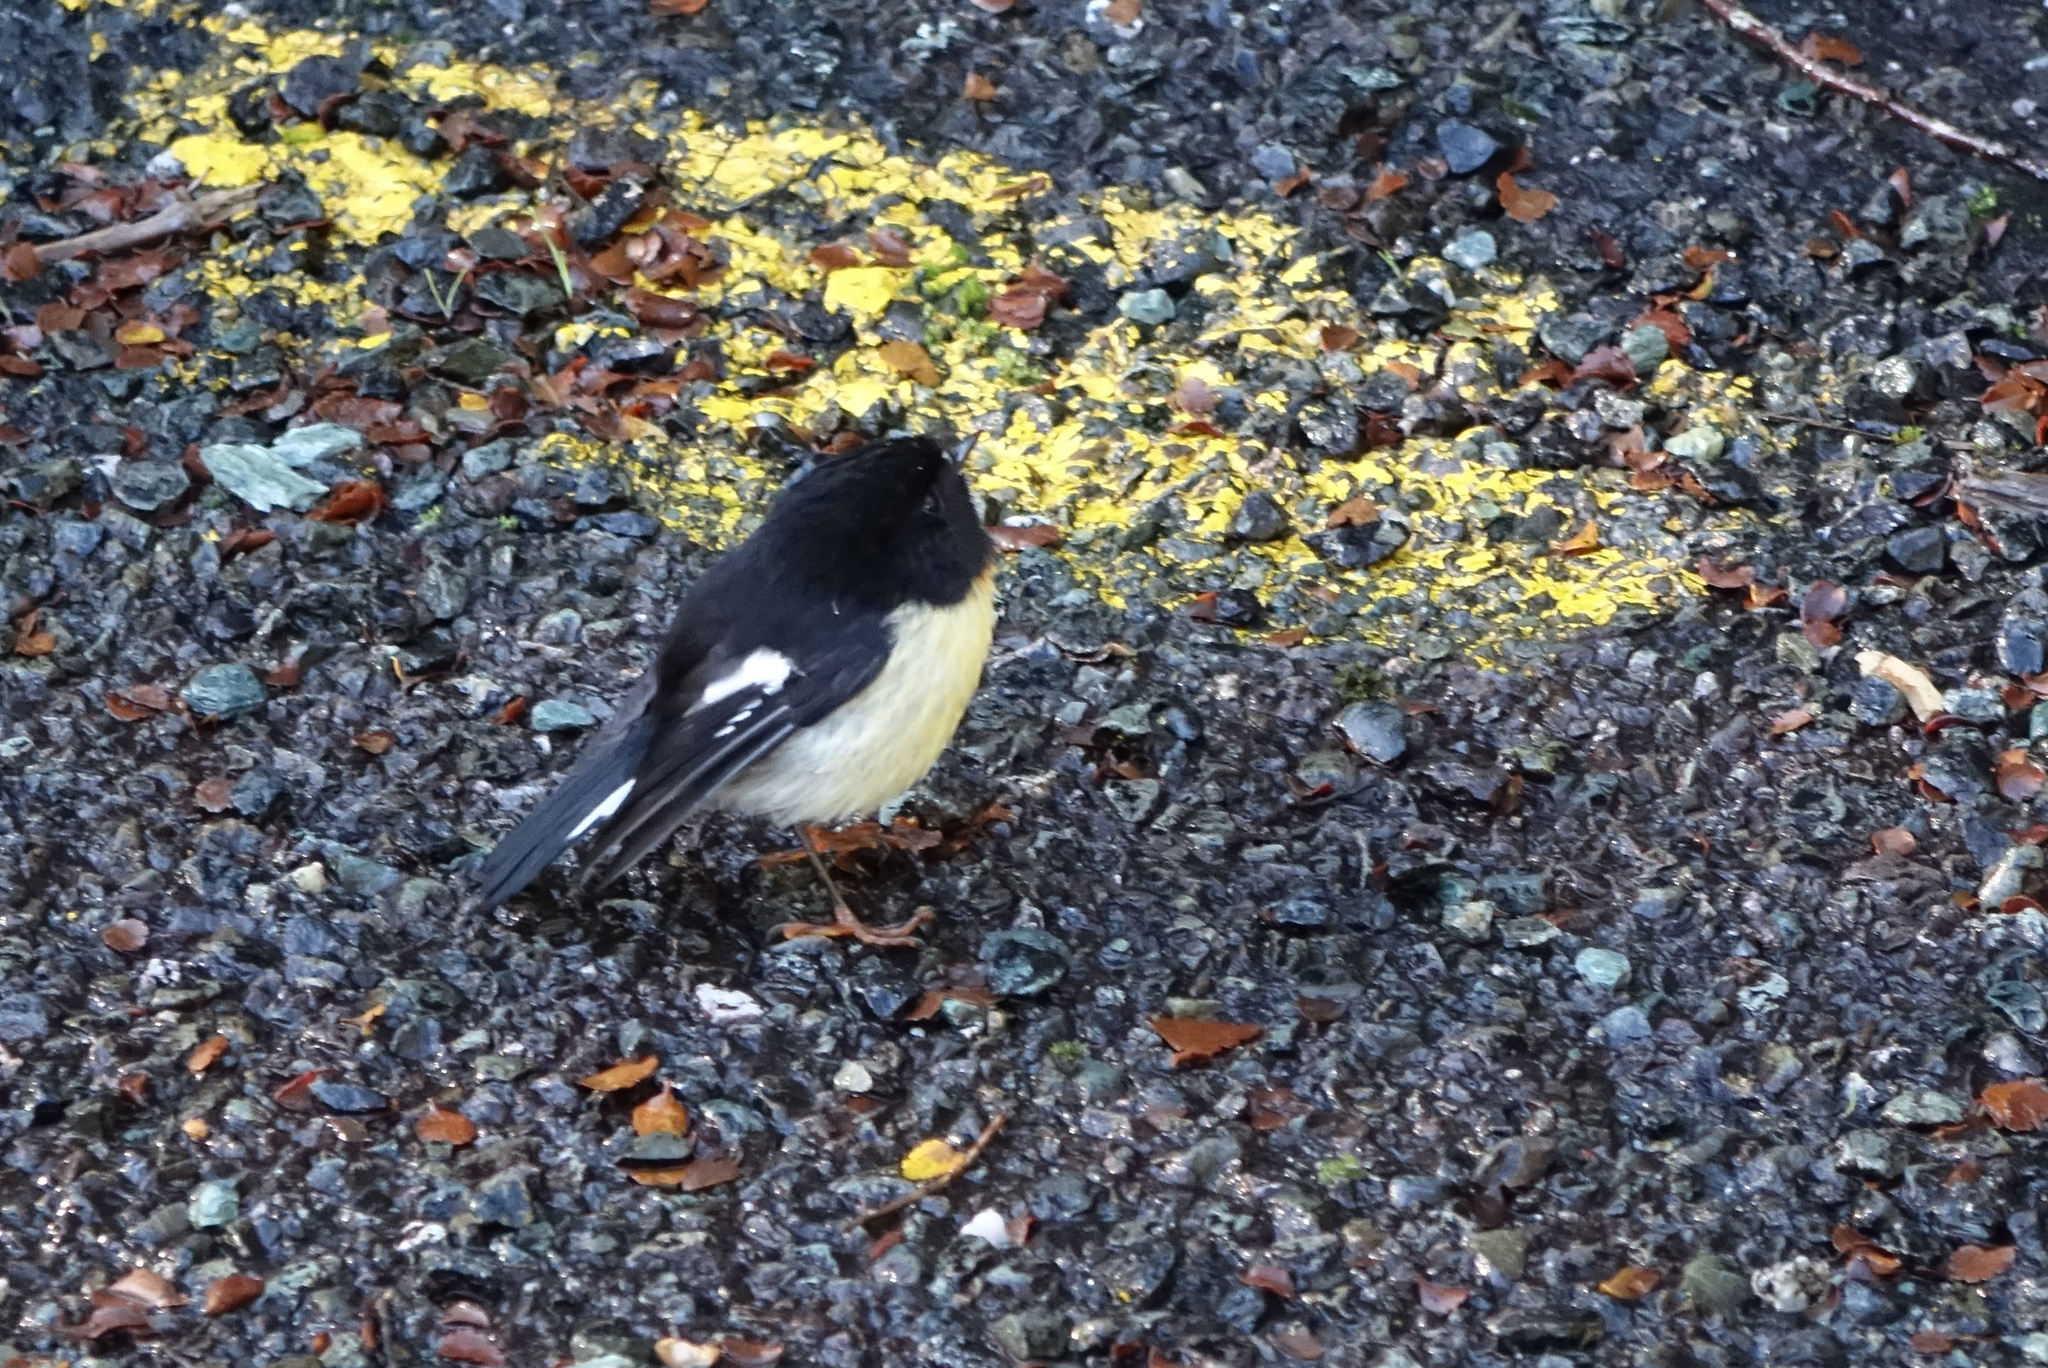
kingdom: Animalia
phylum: Chordata
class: Aves
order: Passeriformes
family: Petroicidae
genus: Petroica
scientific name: Petroica macrocephala
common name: Tomtit
